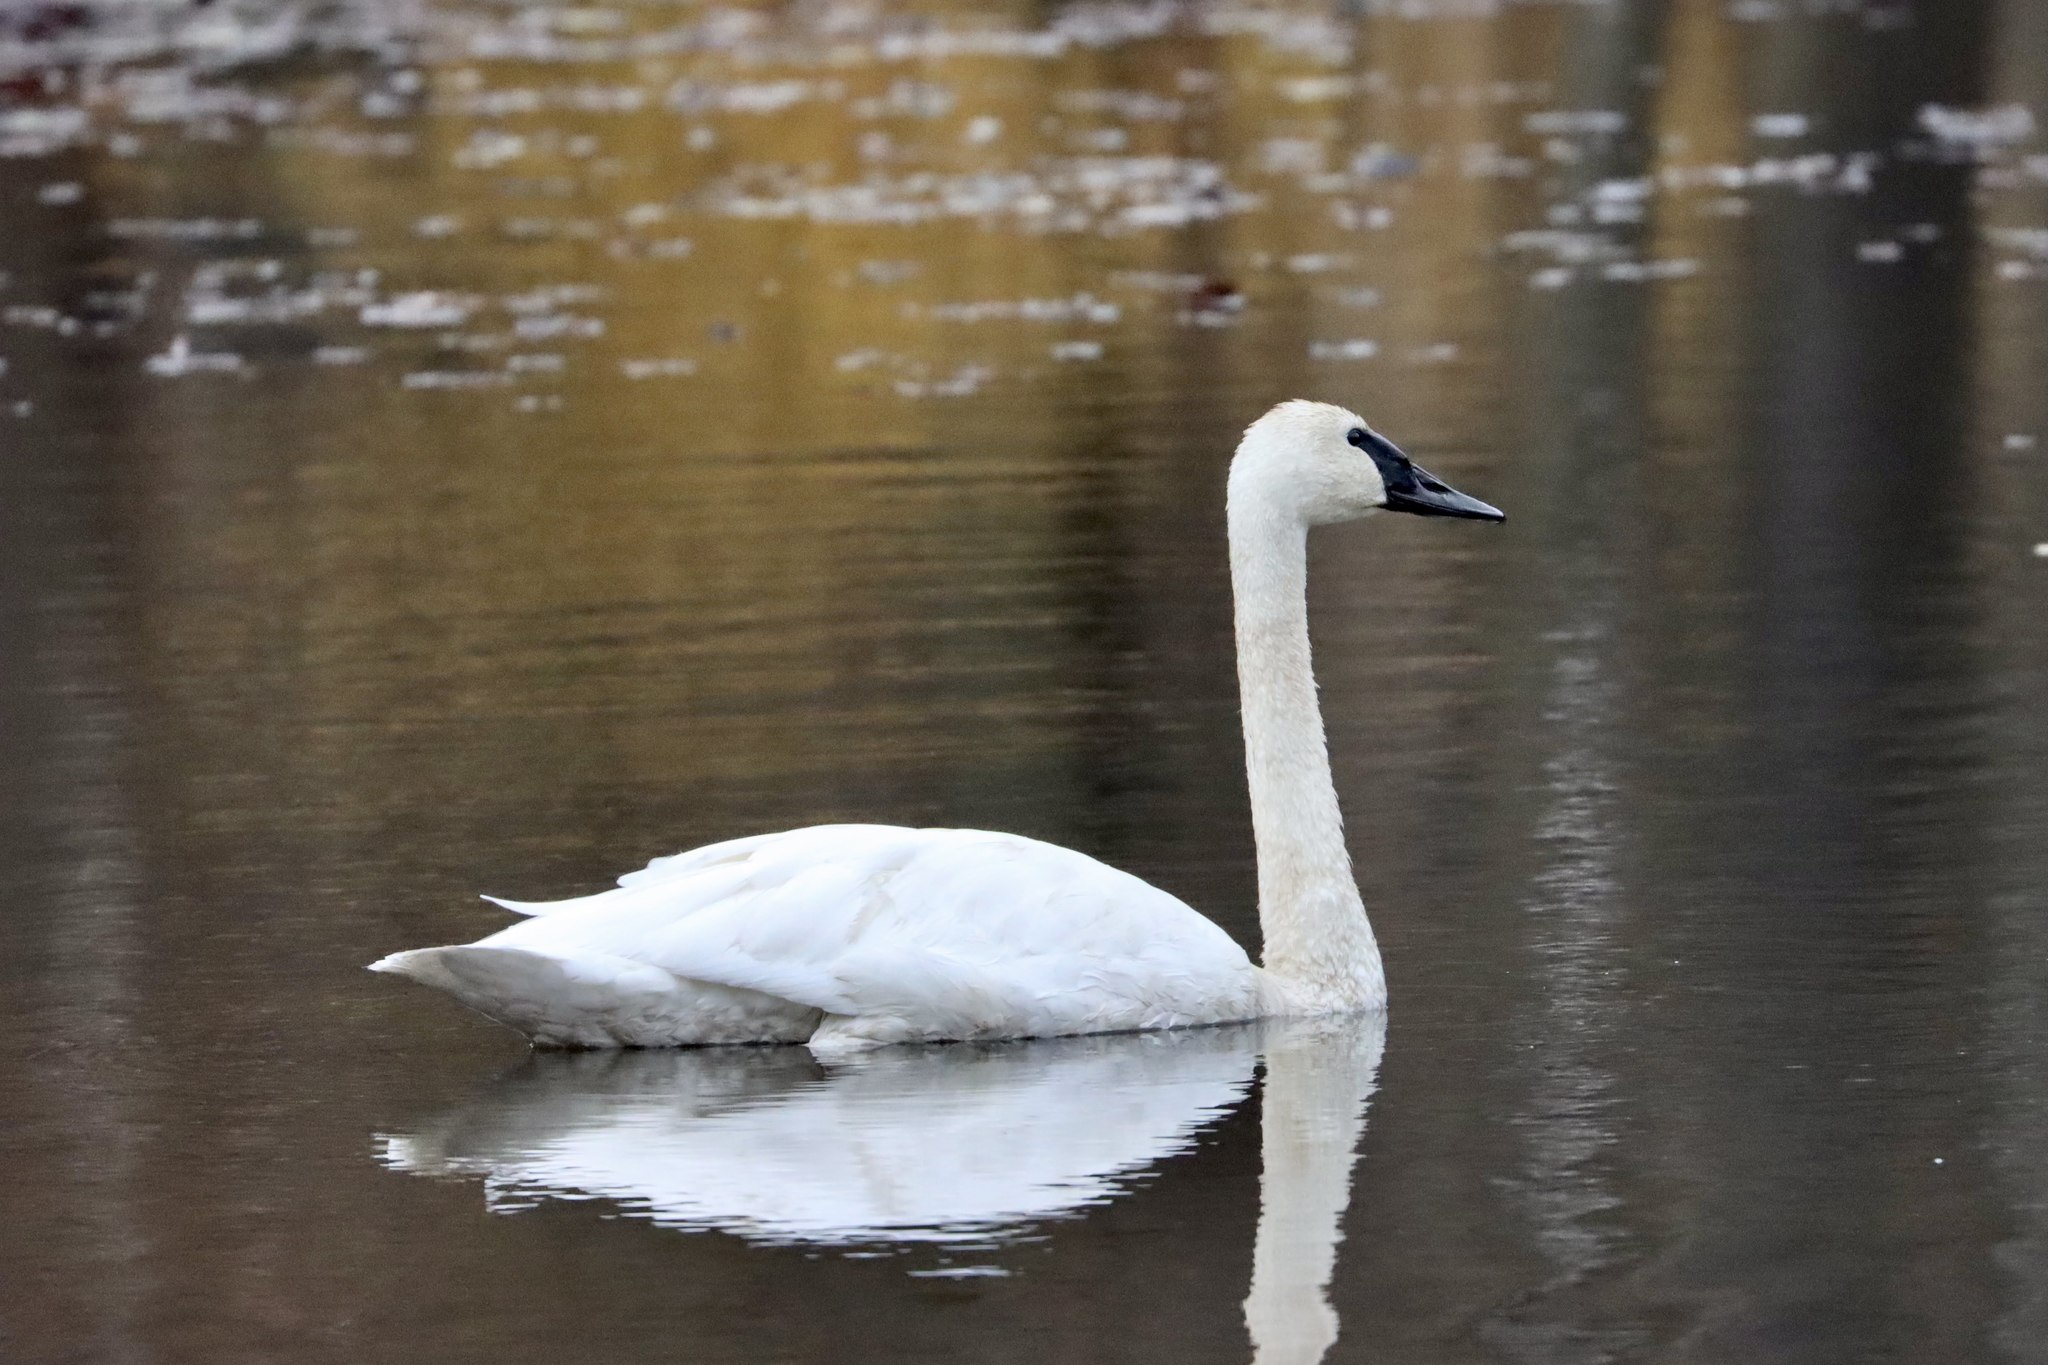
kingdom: Animalia
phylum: Chordata
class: Aves
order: Anseriformes
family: Anatidae
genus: Cygnus
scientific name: Cygnus columbianus
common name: Tundra swan
